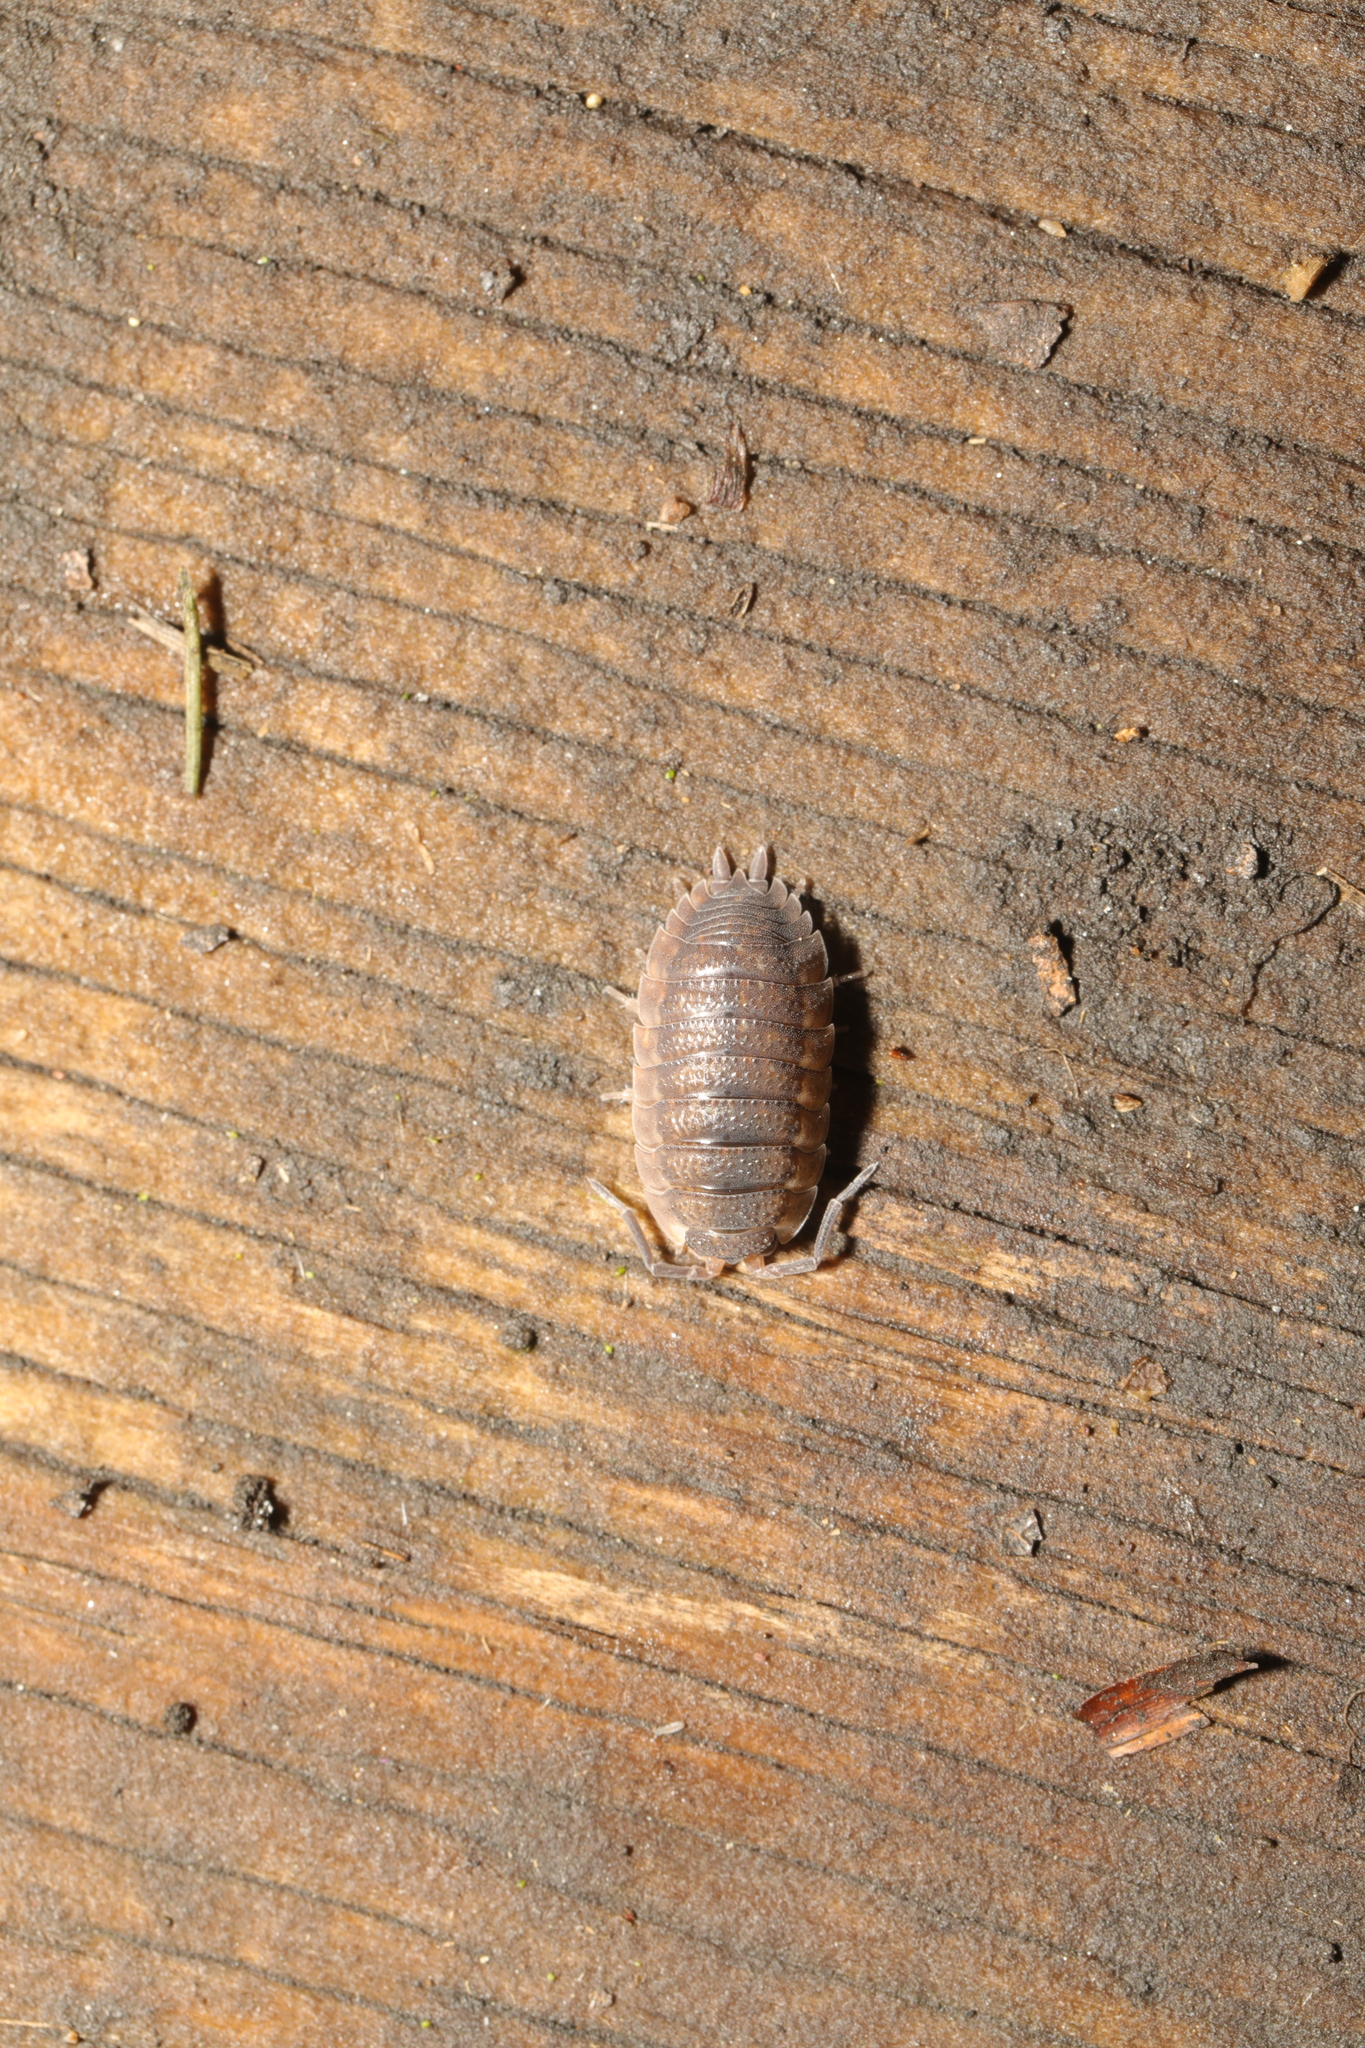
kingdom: Animalia
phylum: Arthropoda
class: Malacostraca
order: Isopoda
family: Porcellionidae
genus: Porcellio
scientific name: Porcellio scaber
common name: Common rough woodlouse
